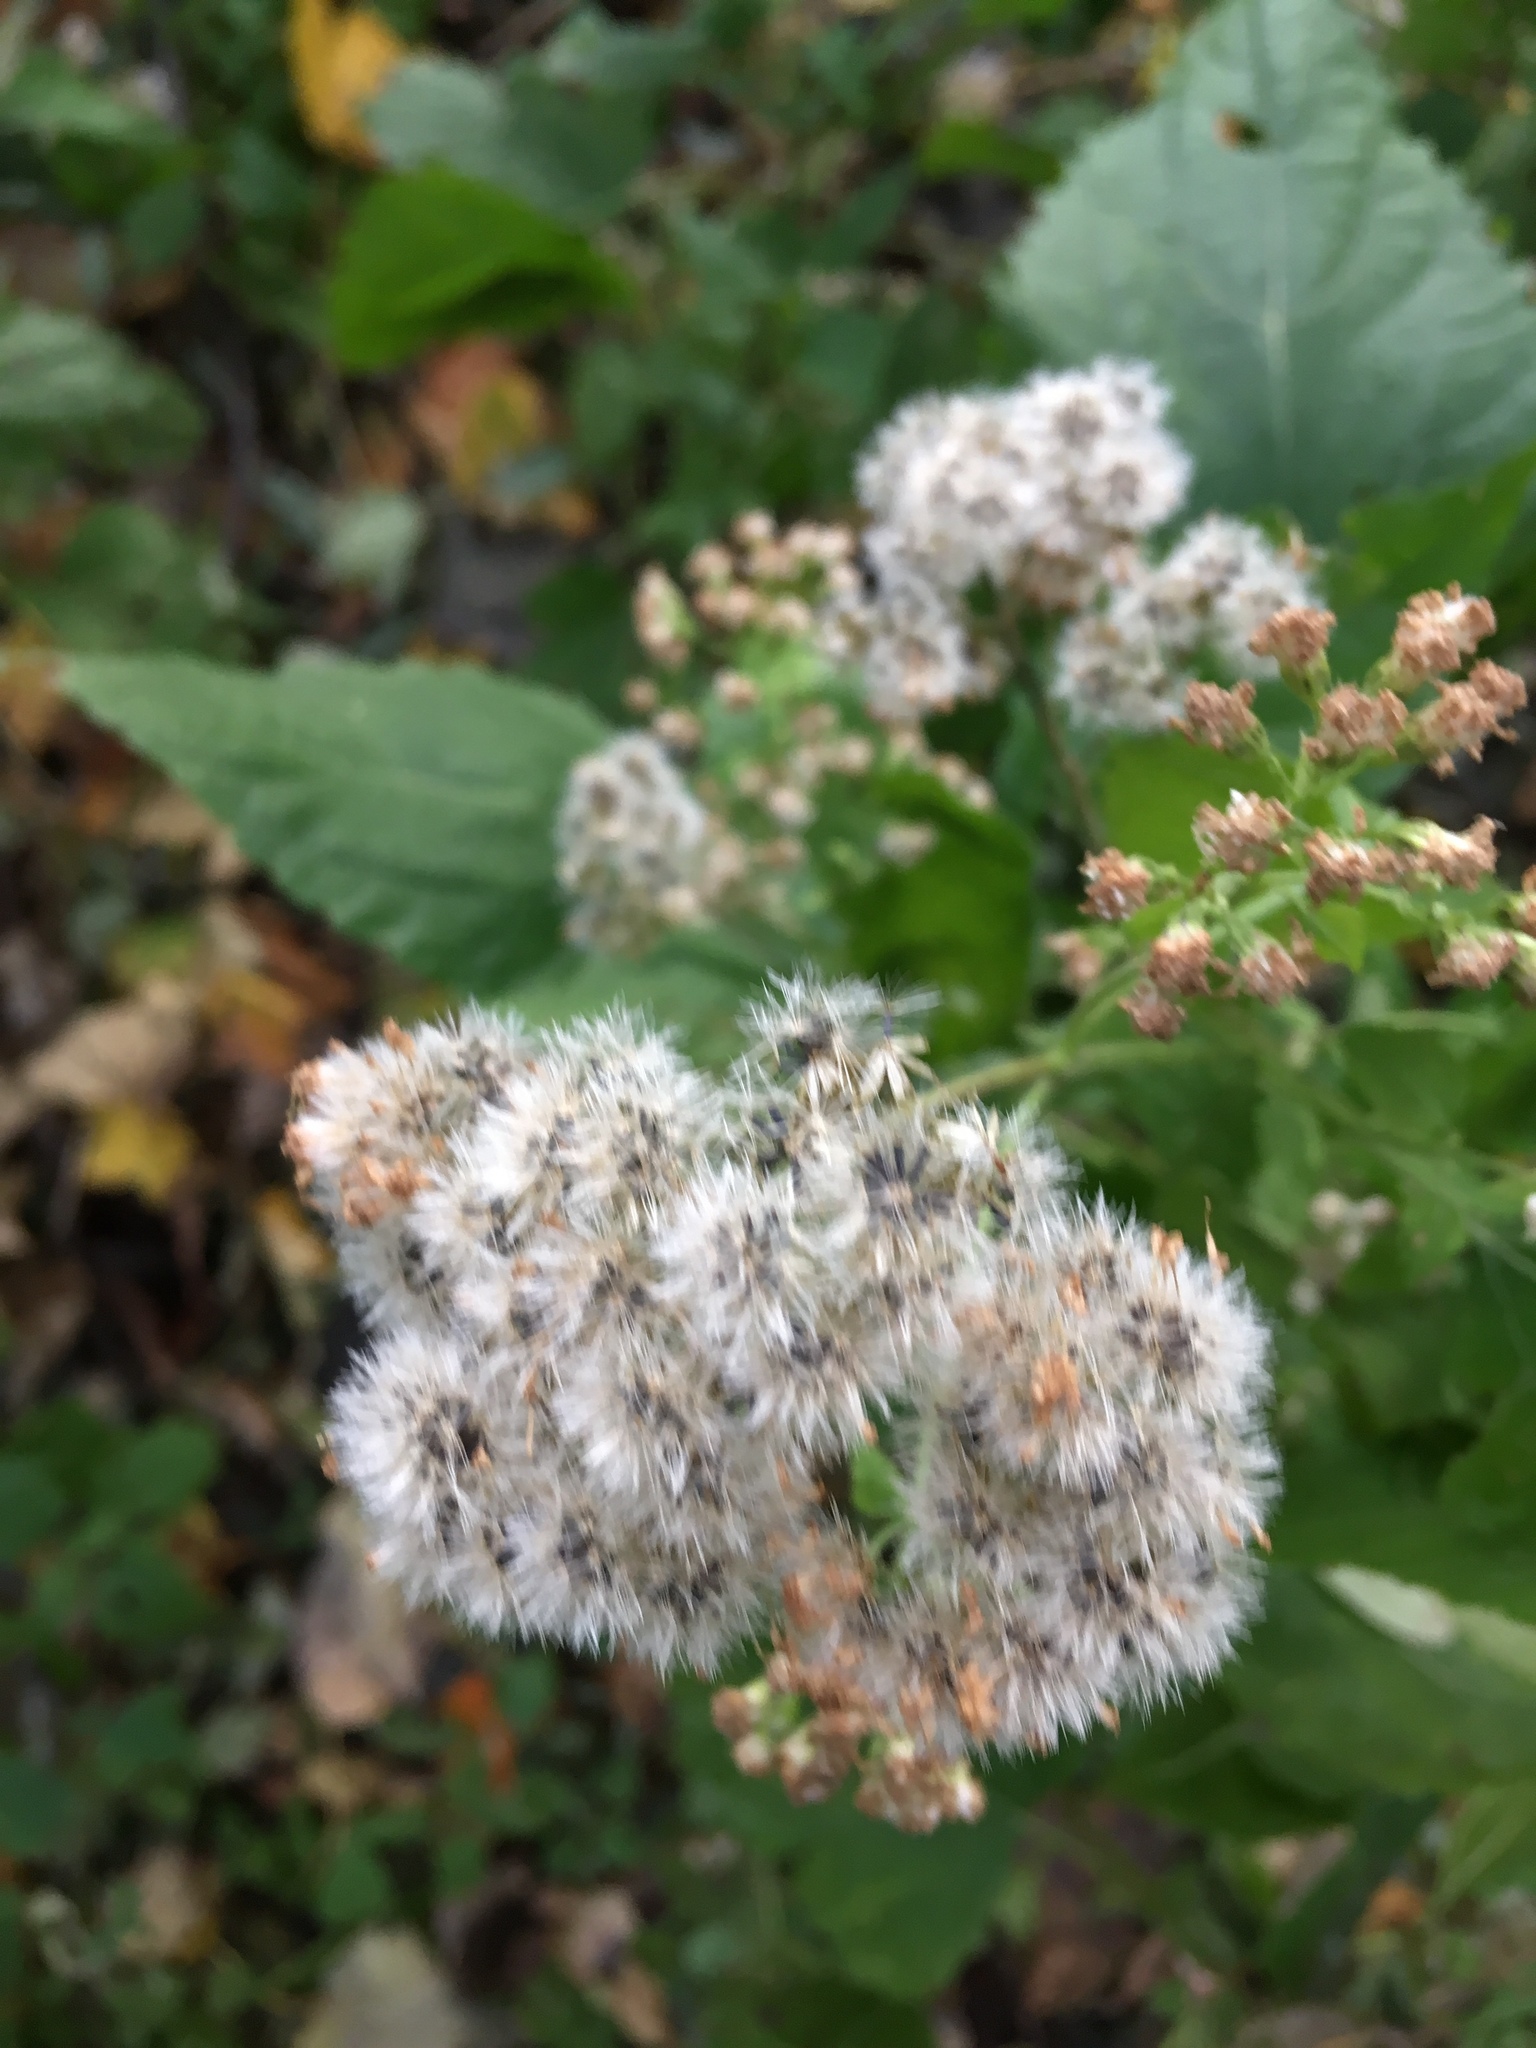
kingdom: Plantae
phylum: Tracheophyta
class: Magnoliopsida
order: Asterales
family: Asteraceae
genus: Ageratina
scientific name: Ageratina altissima
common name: White snakeroot
